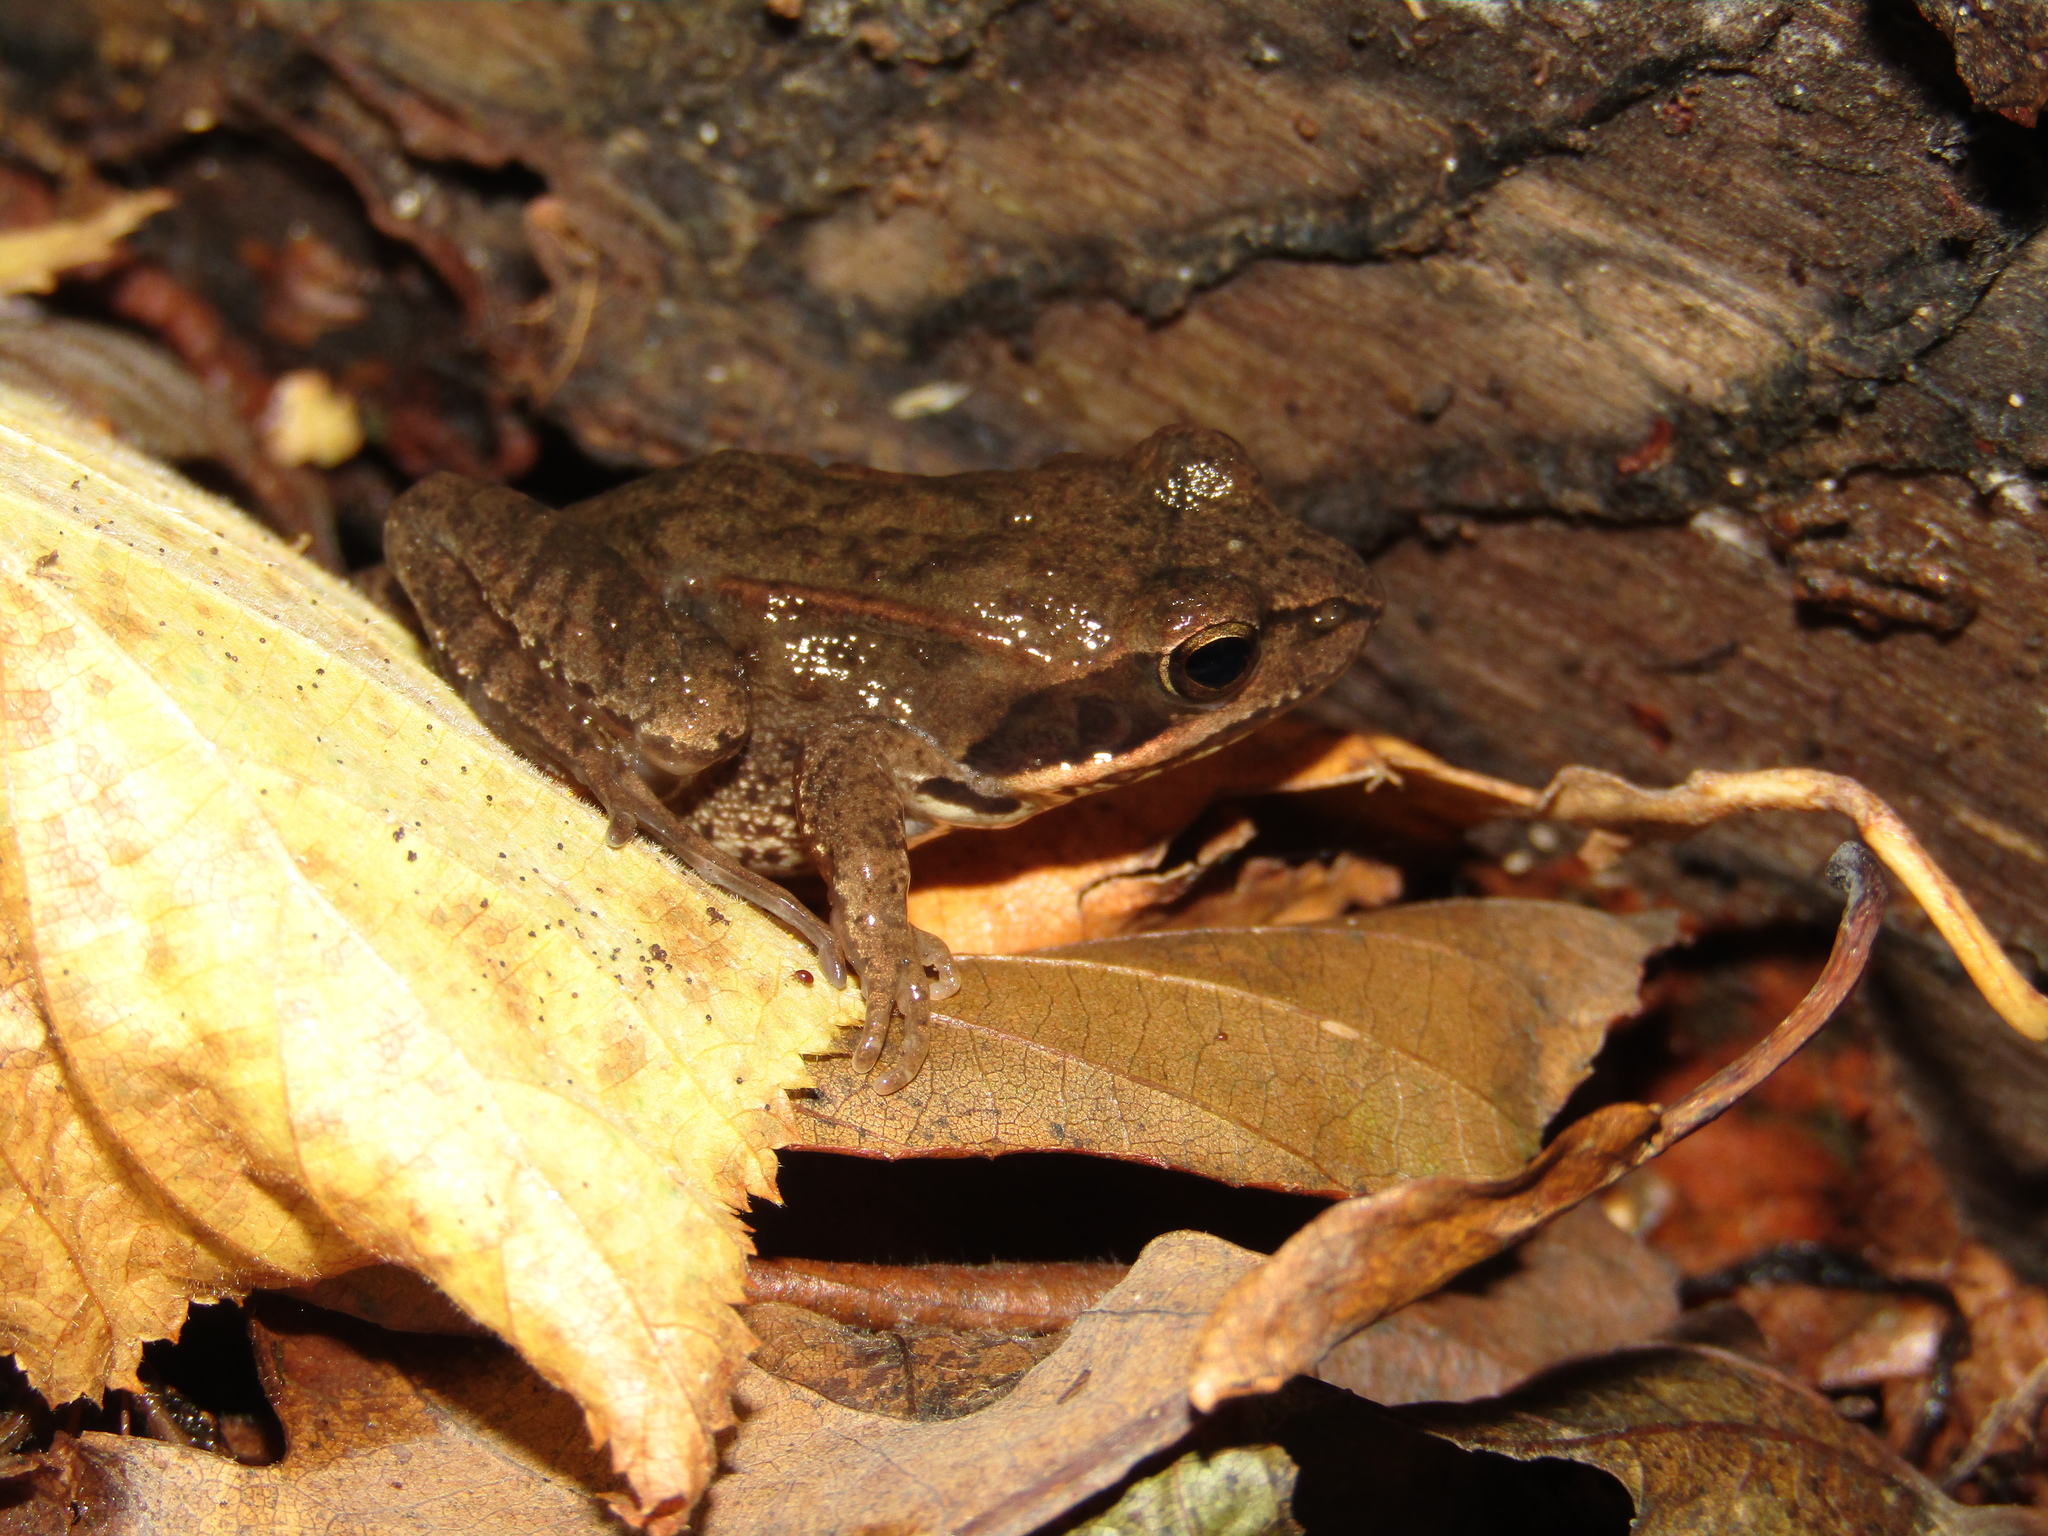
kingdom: Animalia
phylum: Chordata
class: Amphibia
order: Anura
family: Ranidae
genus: Rana
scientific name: Rana temporaria
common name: Common frog
